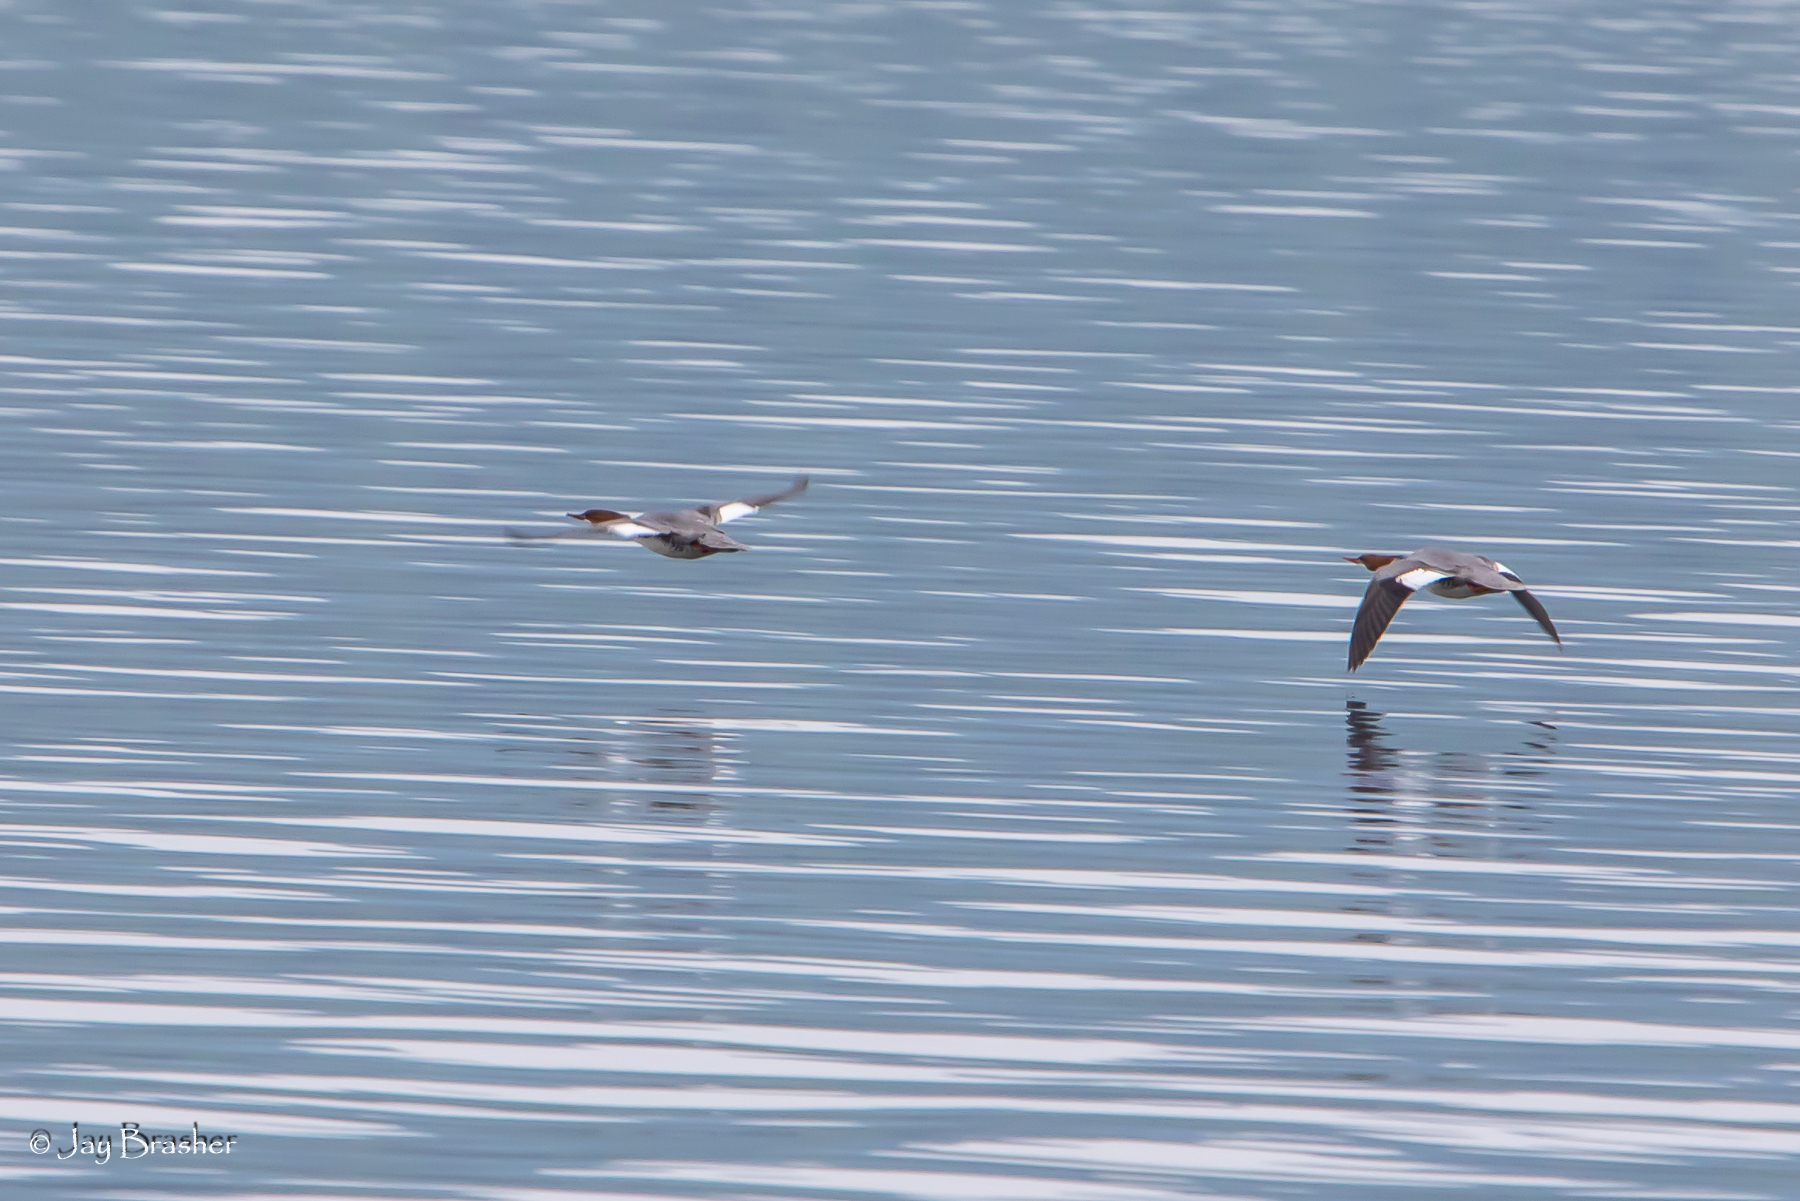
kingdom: Animalia
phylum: Chordata
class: Aves
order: Anseriformes
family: Anatidae
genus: Mergus
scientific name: Mergus merganser
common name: Common merganser
